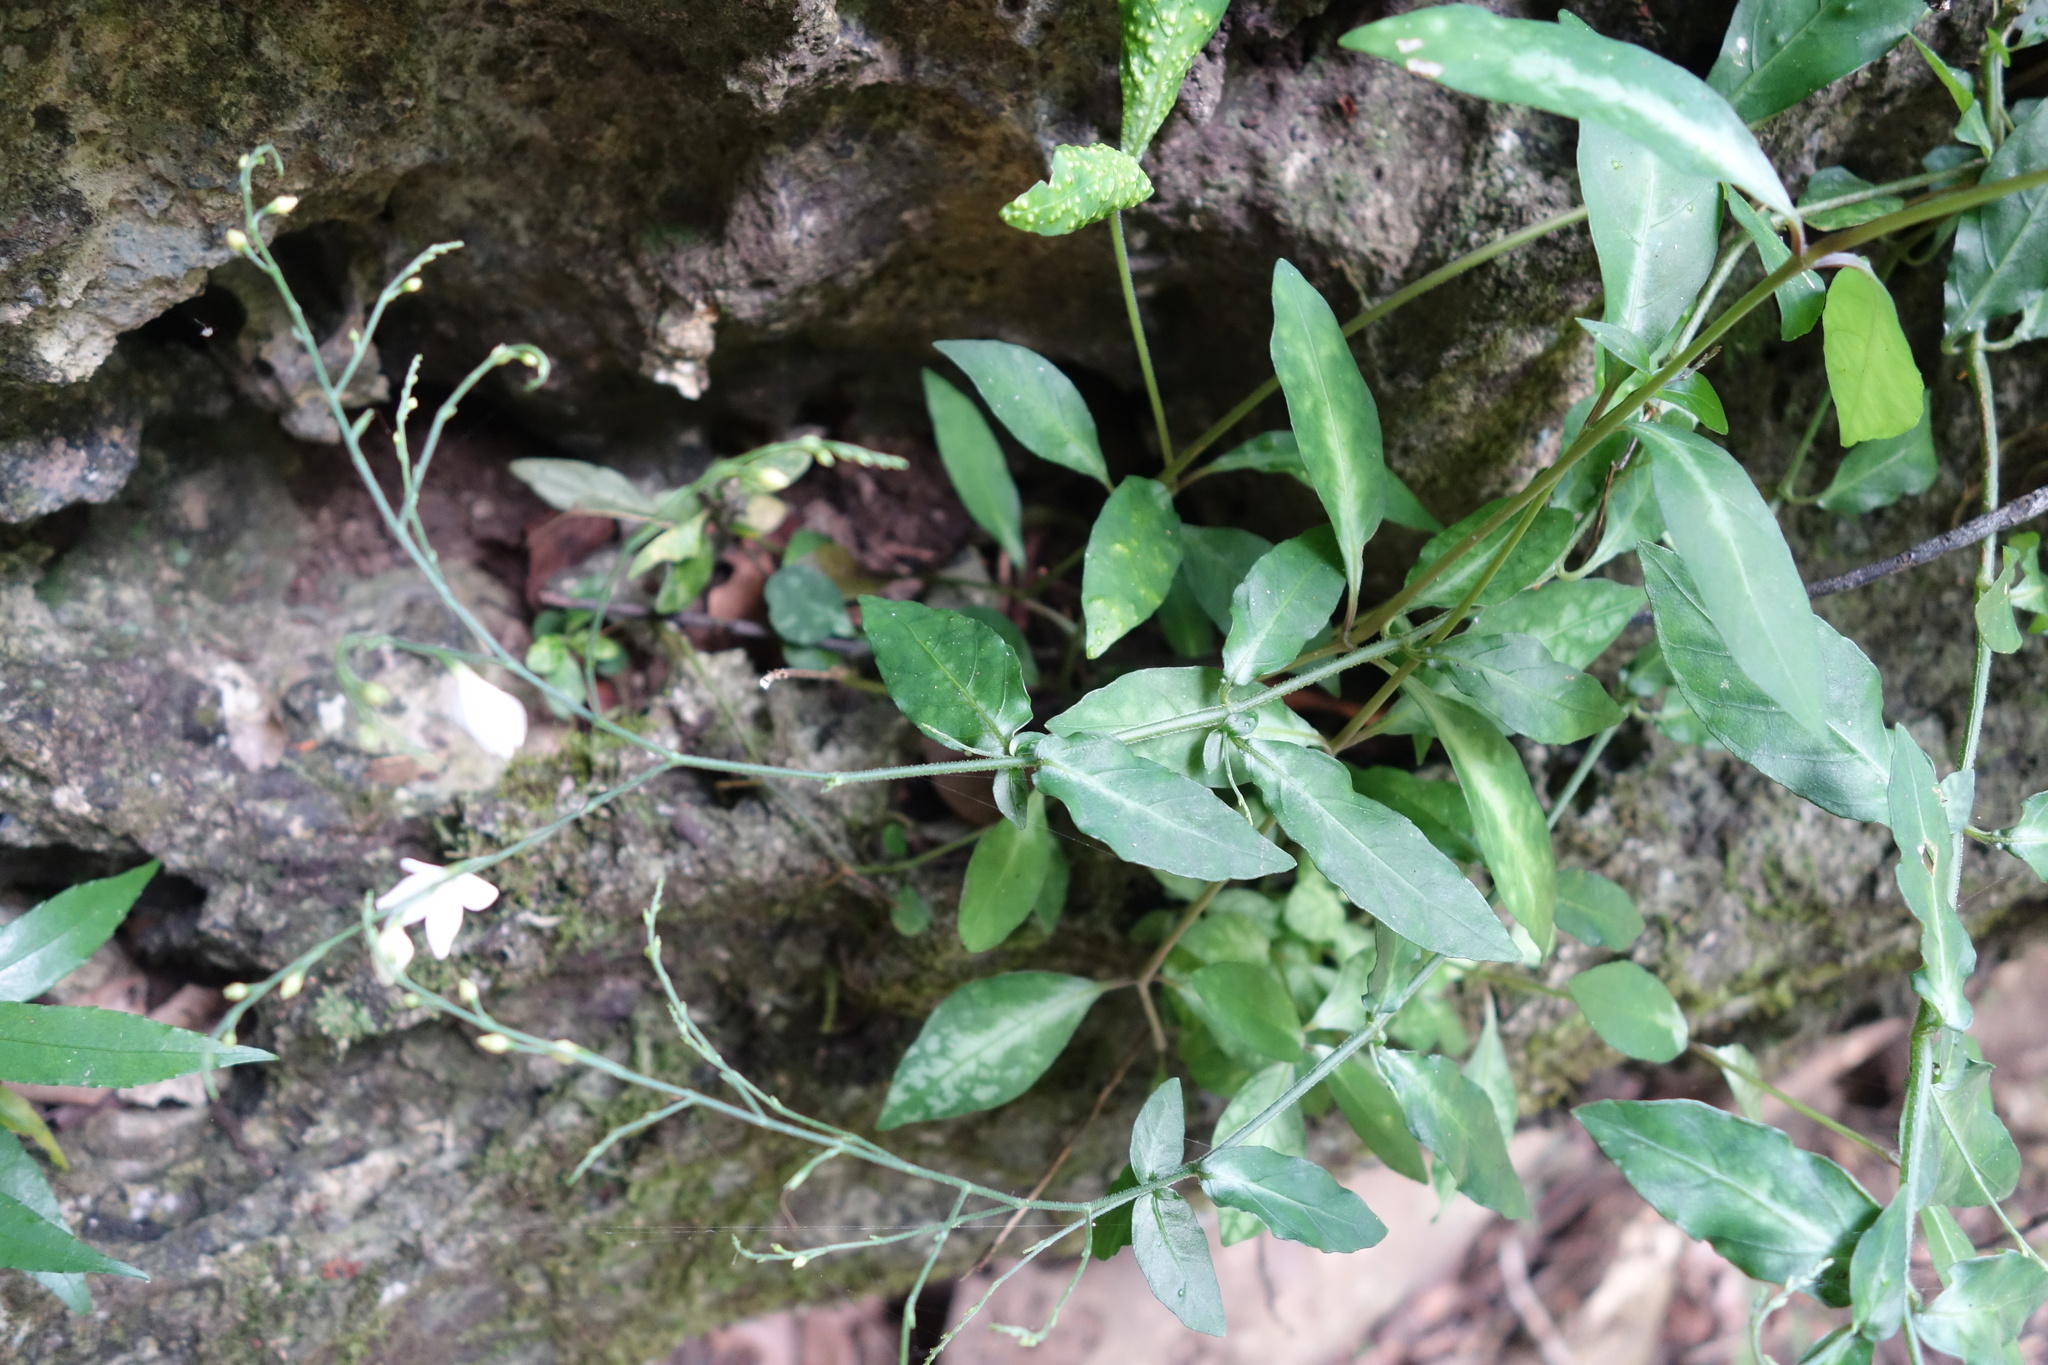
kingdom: Plantae
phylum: Tracheophyta
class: Magnoliopsida
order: Lamiales
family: Acanthaceae
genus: Codonacanthus
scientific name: Codonacanthus pauciflorus
